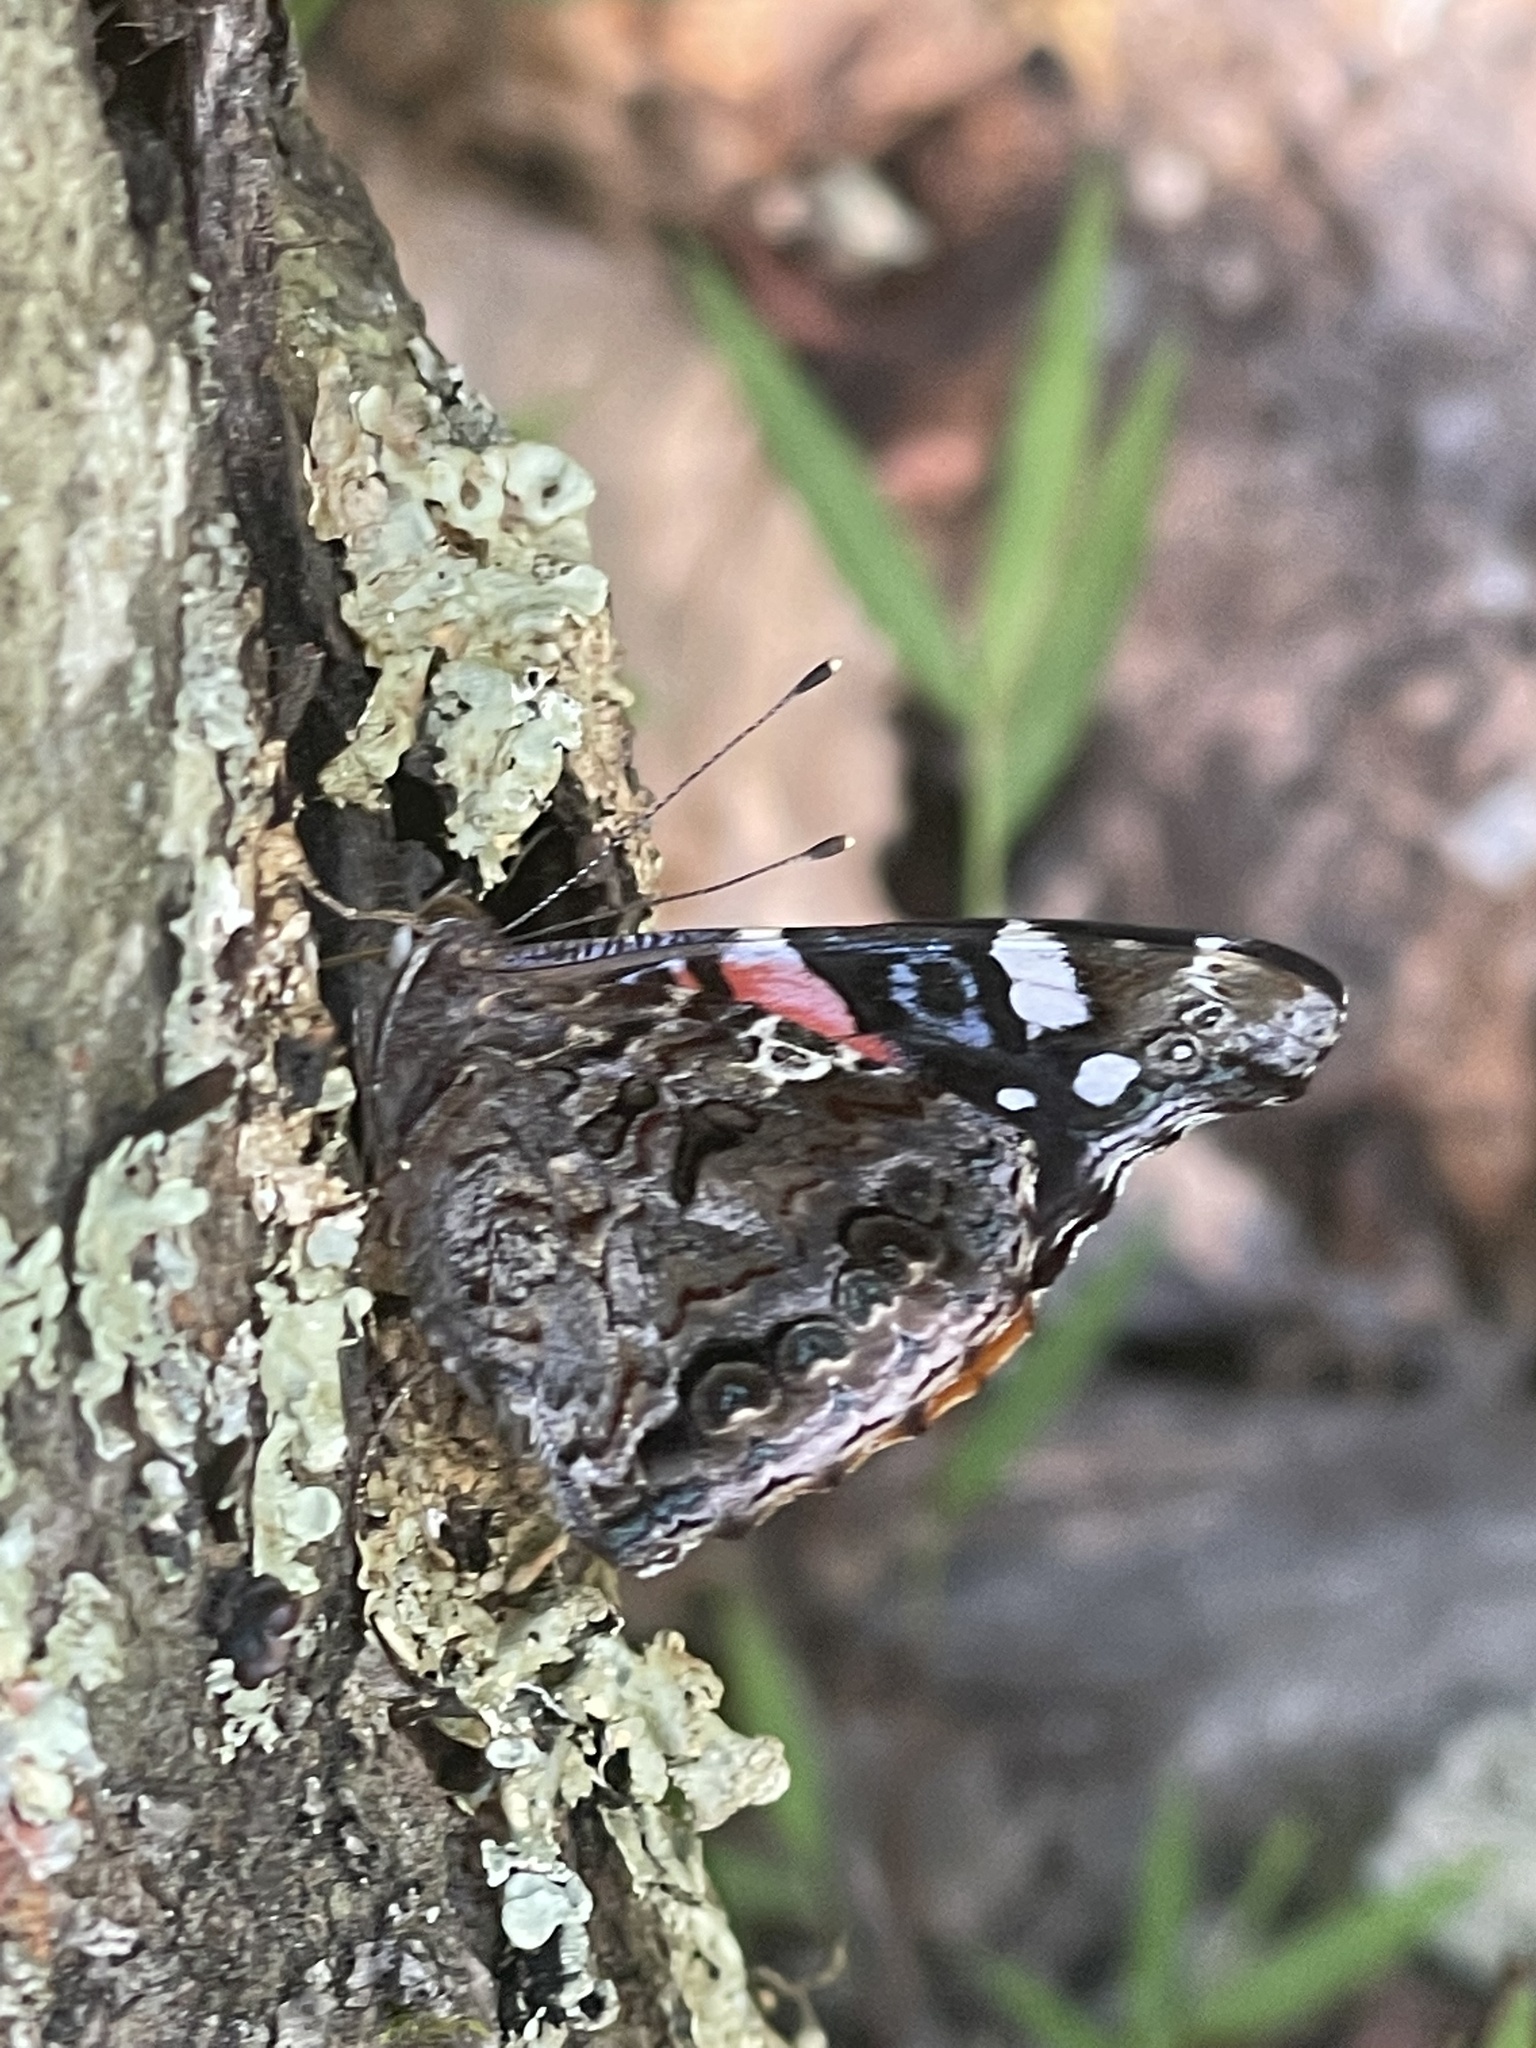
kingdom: Animalia
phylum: Arthropoda
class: Insecta
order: Lepidoptera
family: Nymphalidae
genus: Vanessa
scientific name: Vanessa atalanta
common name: Red admiral
